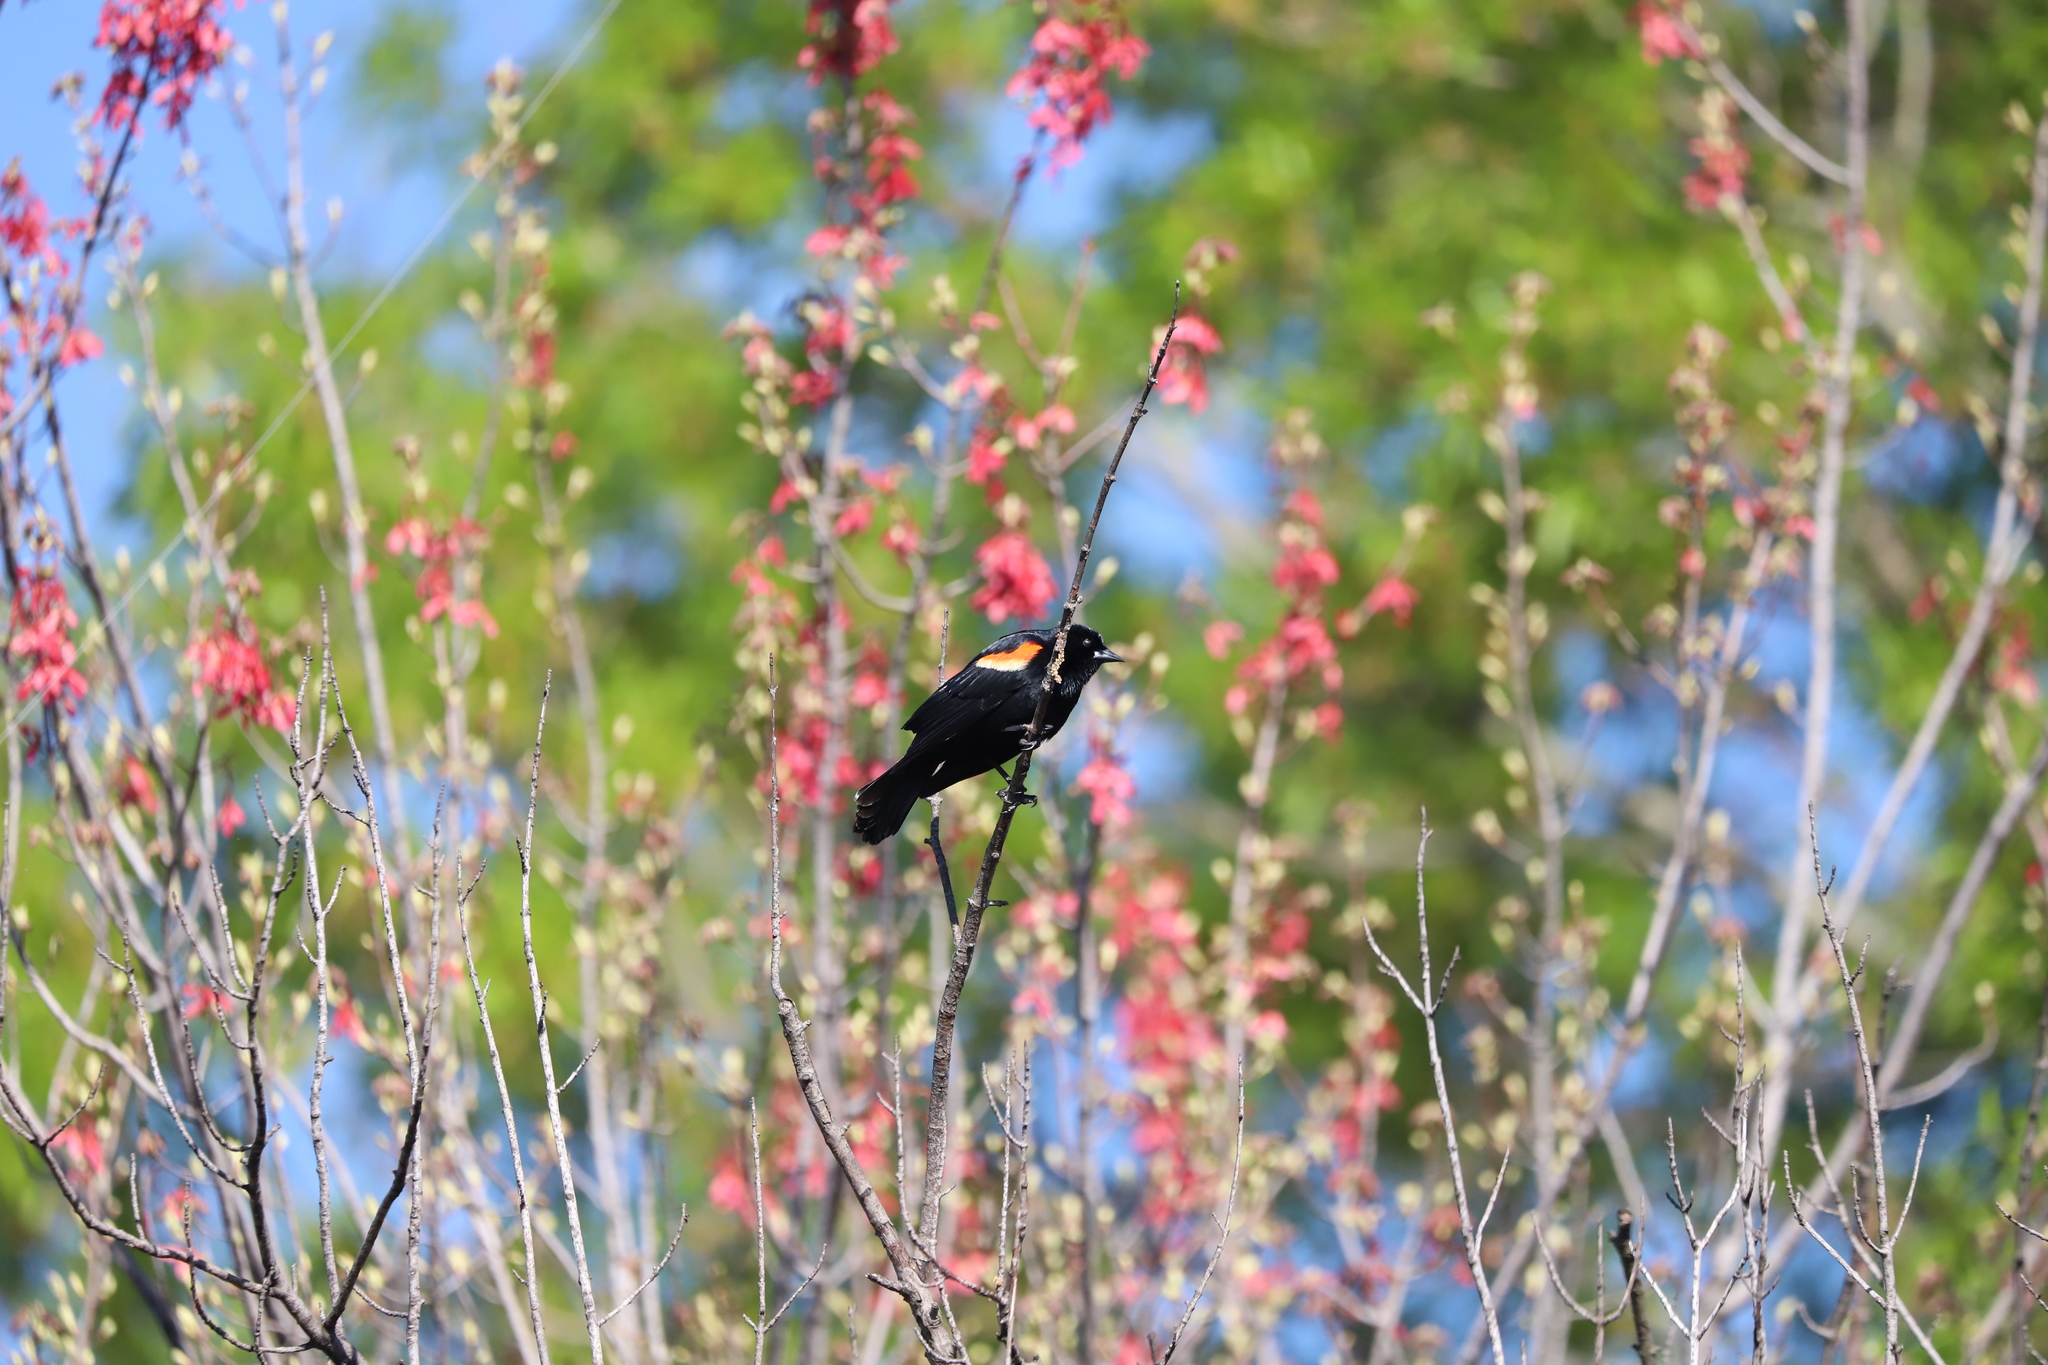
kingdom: Animalia
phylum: Chordata
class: Aves
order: Passeriformes
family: Icteridae
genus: Agelaius
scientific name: Agelaius phoeniceus
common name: Red-winged blackbird
